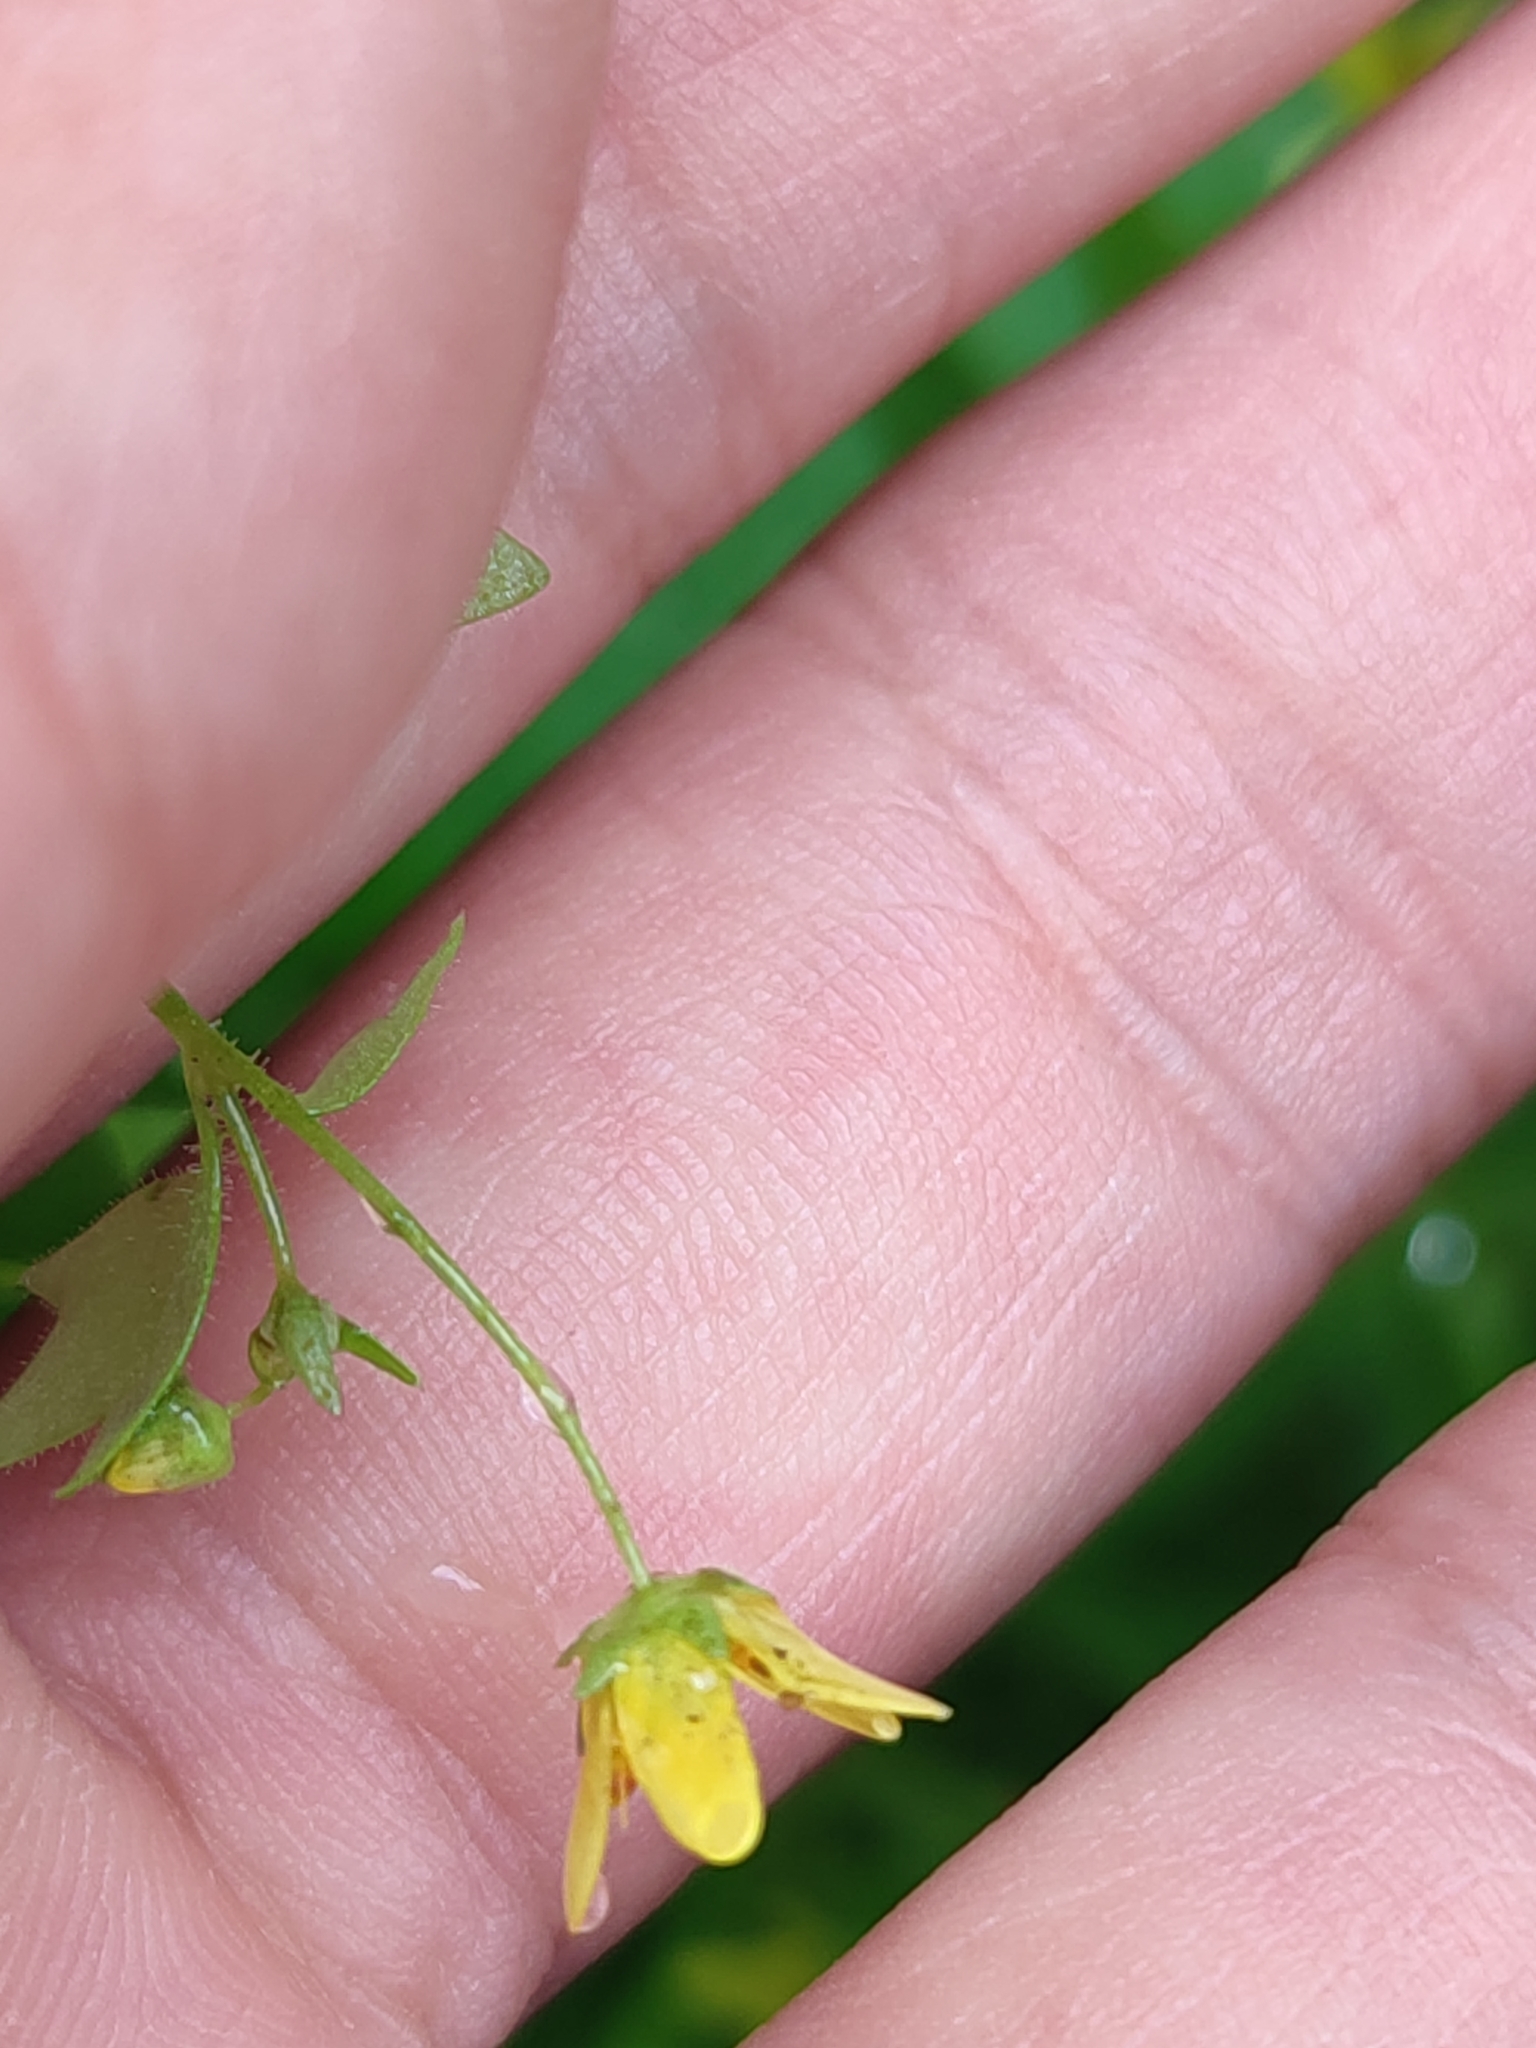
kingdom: Plantae
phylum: Tracheophyta
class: Magnoliopsida
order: Saxifragales
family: Saxifragaceae
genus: Saxifraga
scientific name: Saxifraga cymbalaria
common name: Celandine saxifrage
